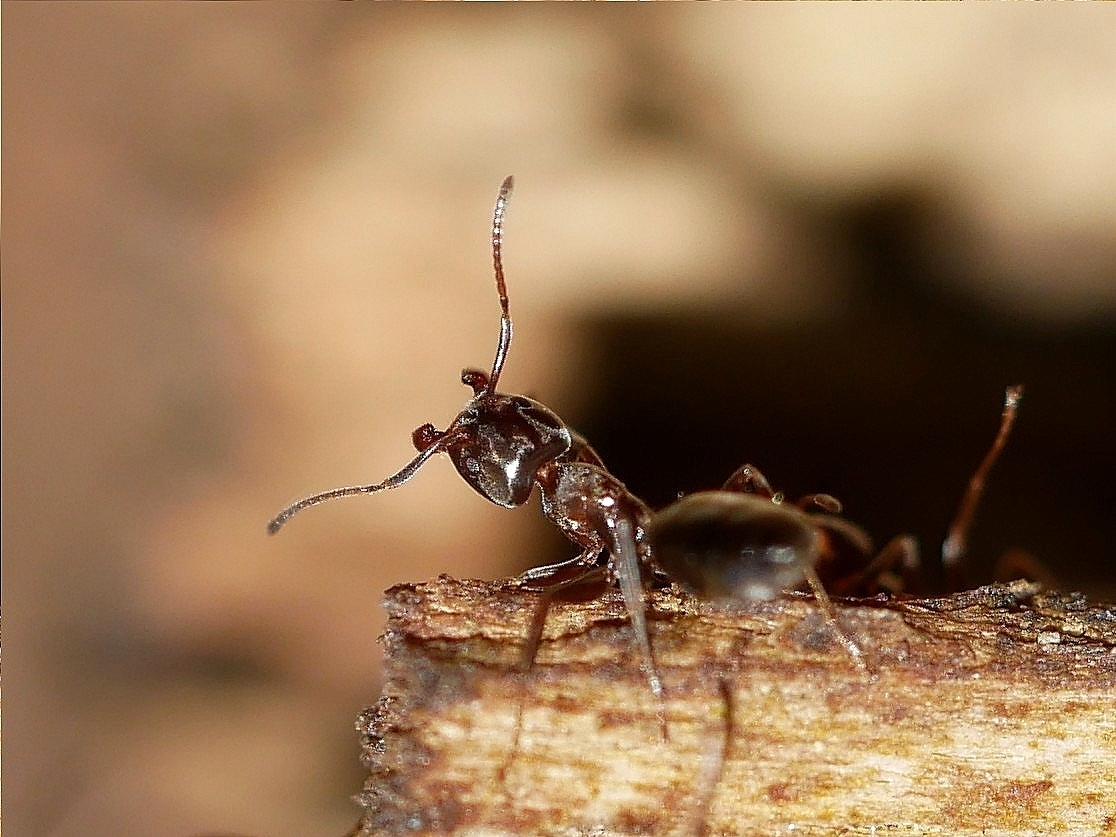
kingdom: Animalia
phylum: Arthropoda
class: Insecta
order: Hymenoptera
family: Formicidae
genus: Liometopum
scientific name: Liometopum luctuosum
